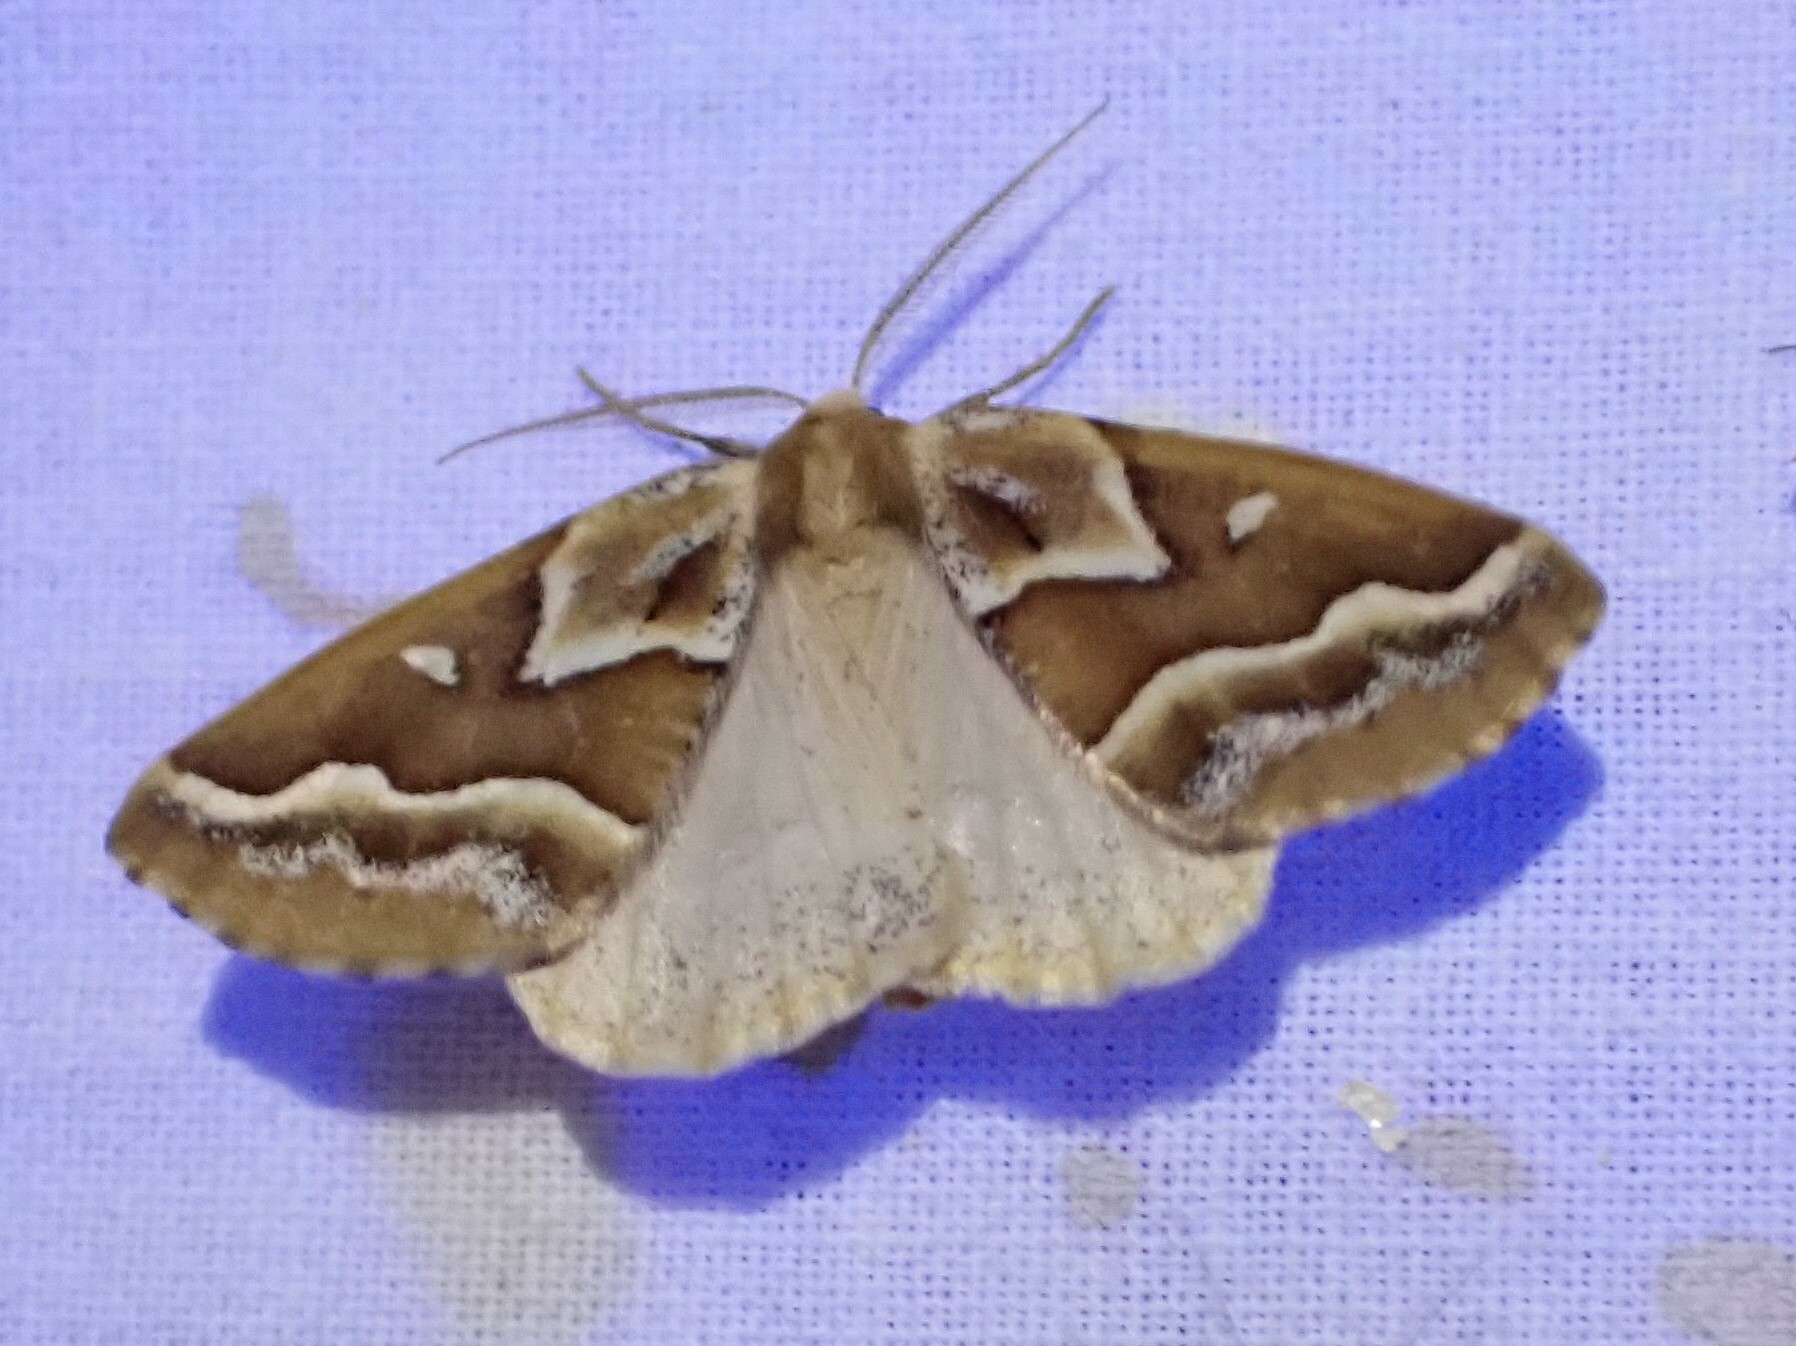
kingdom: Animalia
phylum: Arthropoda
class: Insecta
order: Lepidoptera
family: Geometridae
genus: Caripeta
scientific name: Caripeta angustiorata
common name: Brown pine looper
